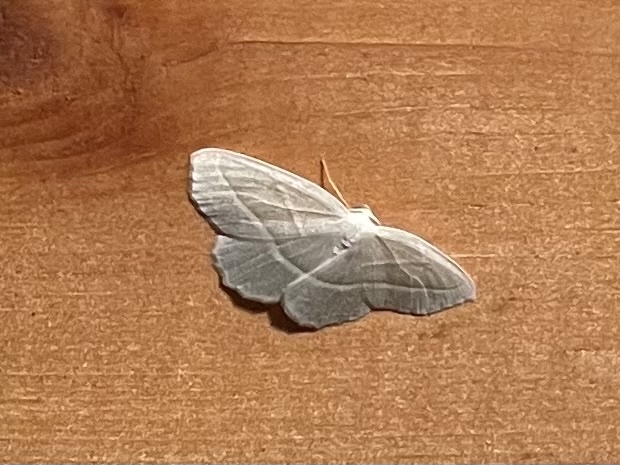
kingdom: Animalia
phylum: Arthropoda
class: Insecta
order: Lepidoptera
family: Geometridae
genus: Campaea
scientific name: Campaea perlata
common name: Fringed looper
